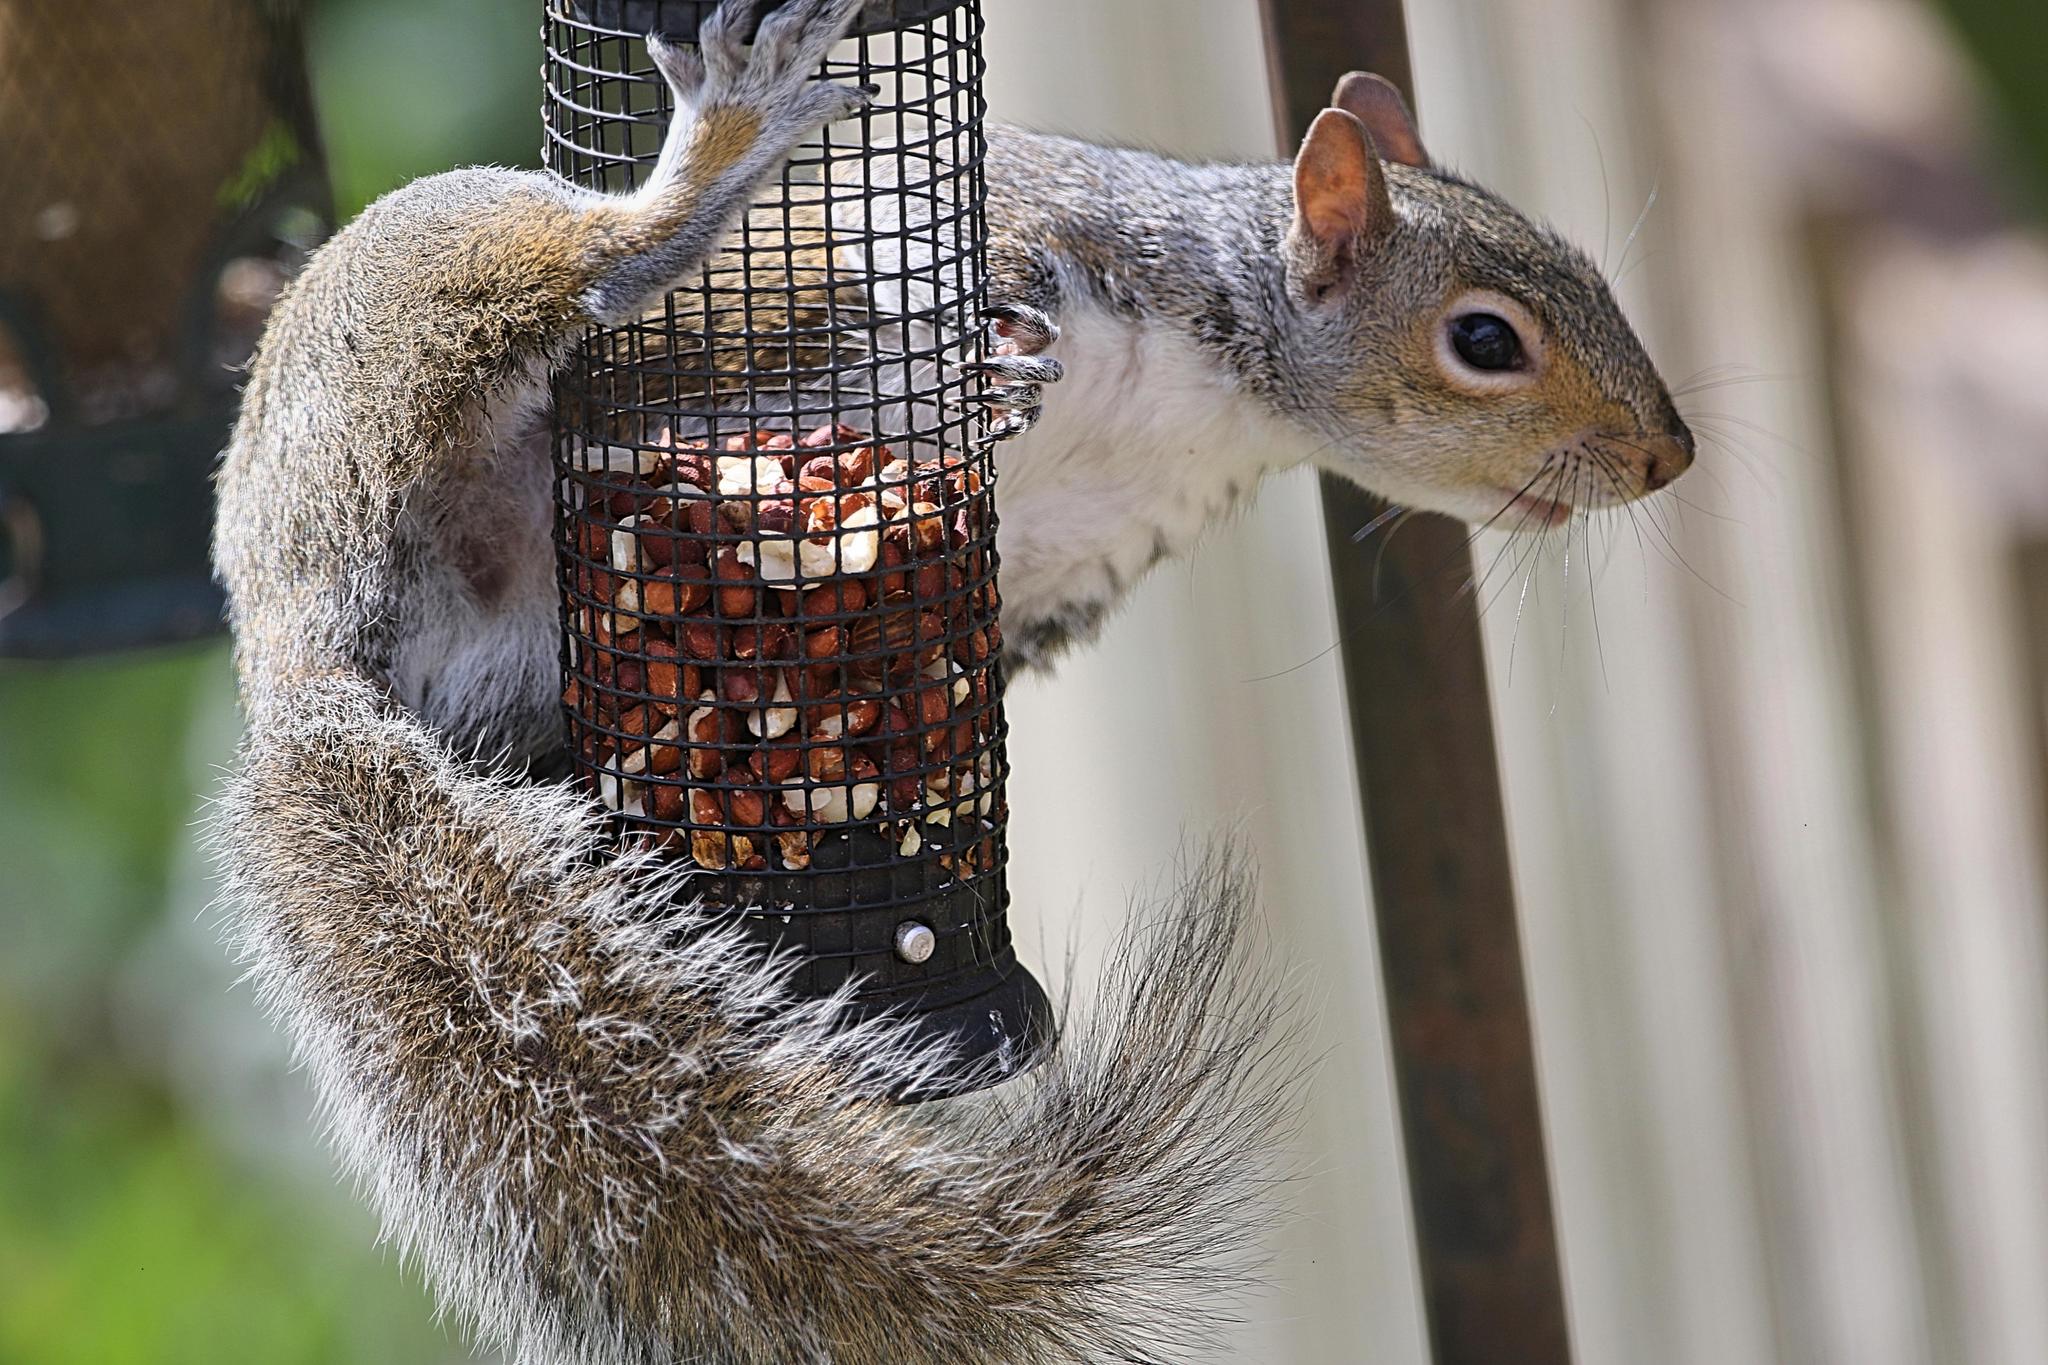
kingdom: Animalia
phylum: Chordata
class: Mammalia
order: Rodentia
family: Sciuridae
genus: Sciurus
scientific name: Sciurus carolinensis
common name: Eastern gray squirrel
